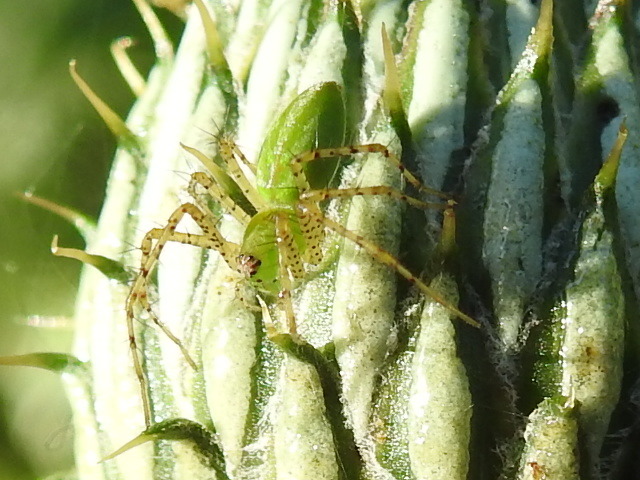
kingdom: Animalia
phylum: Arthropoda
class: Arachnida
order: Araneae
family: Oxyopidae
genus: Peucetia
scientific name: Peucetia viridans
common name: Lynx spiders
